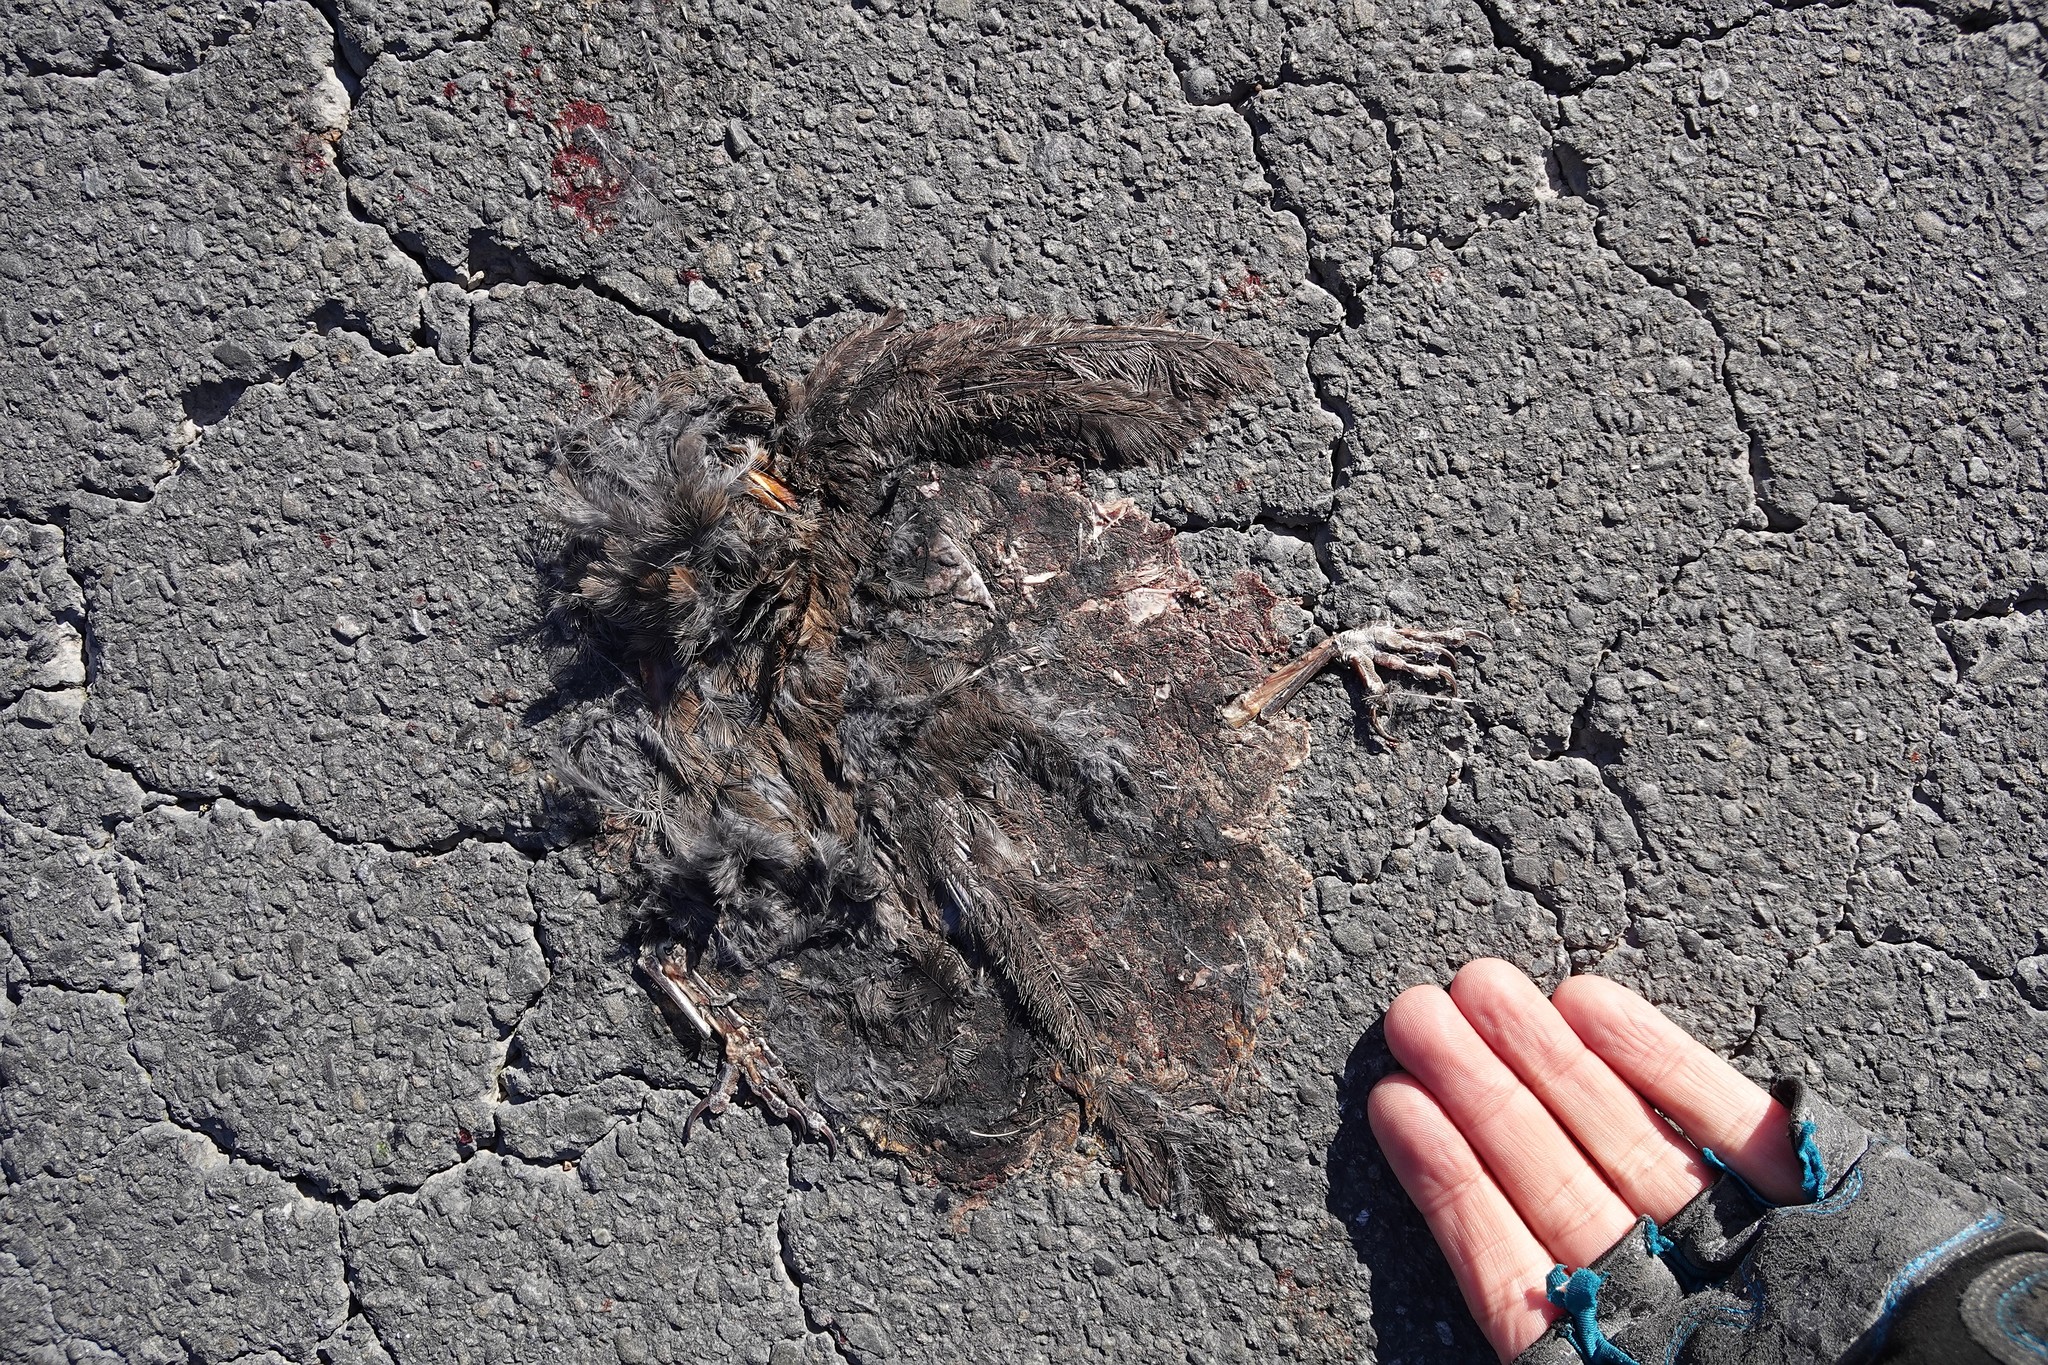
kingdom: Animalia
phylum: Chordata
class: Aves
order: Passeriformes
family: Turdidae
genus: Turdus
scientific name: Turdus merula
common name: Common blackbird
